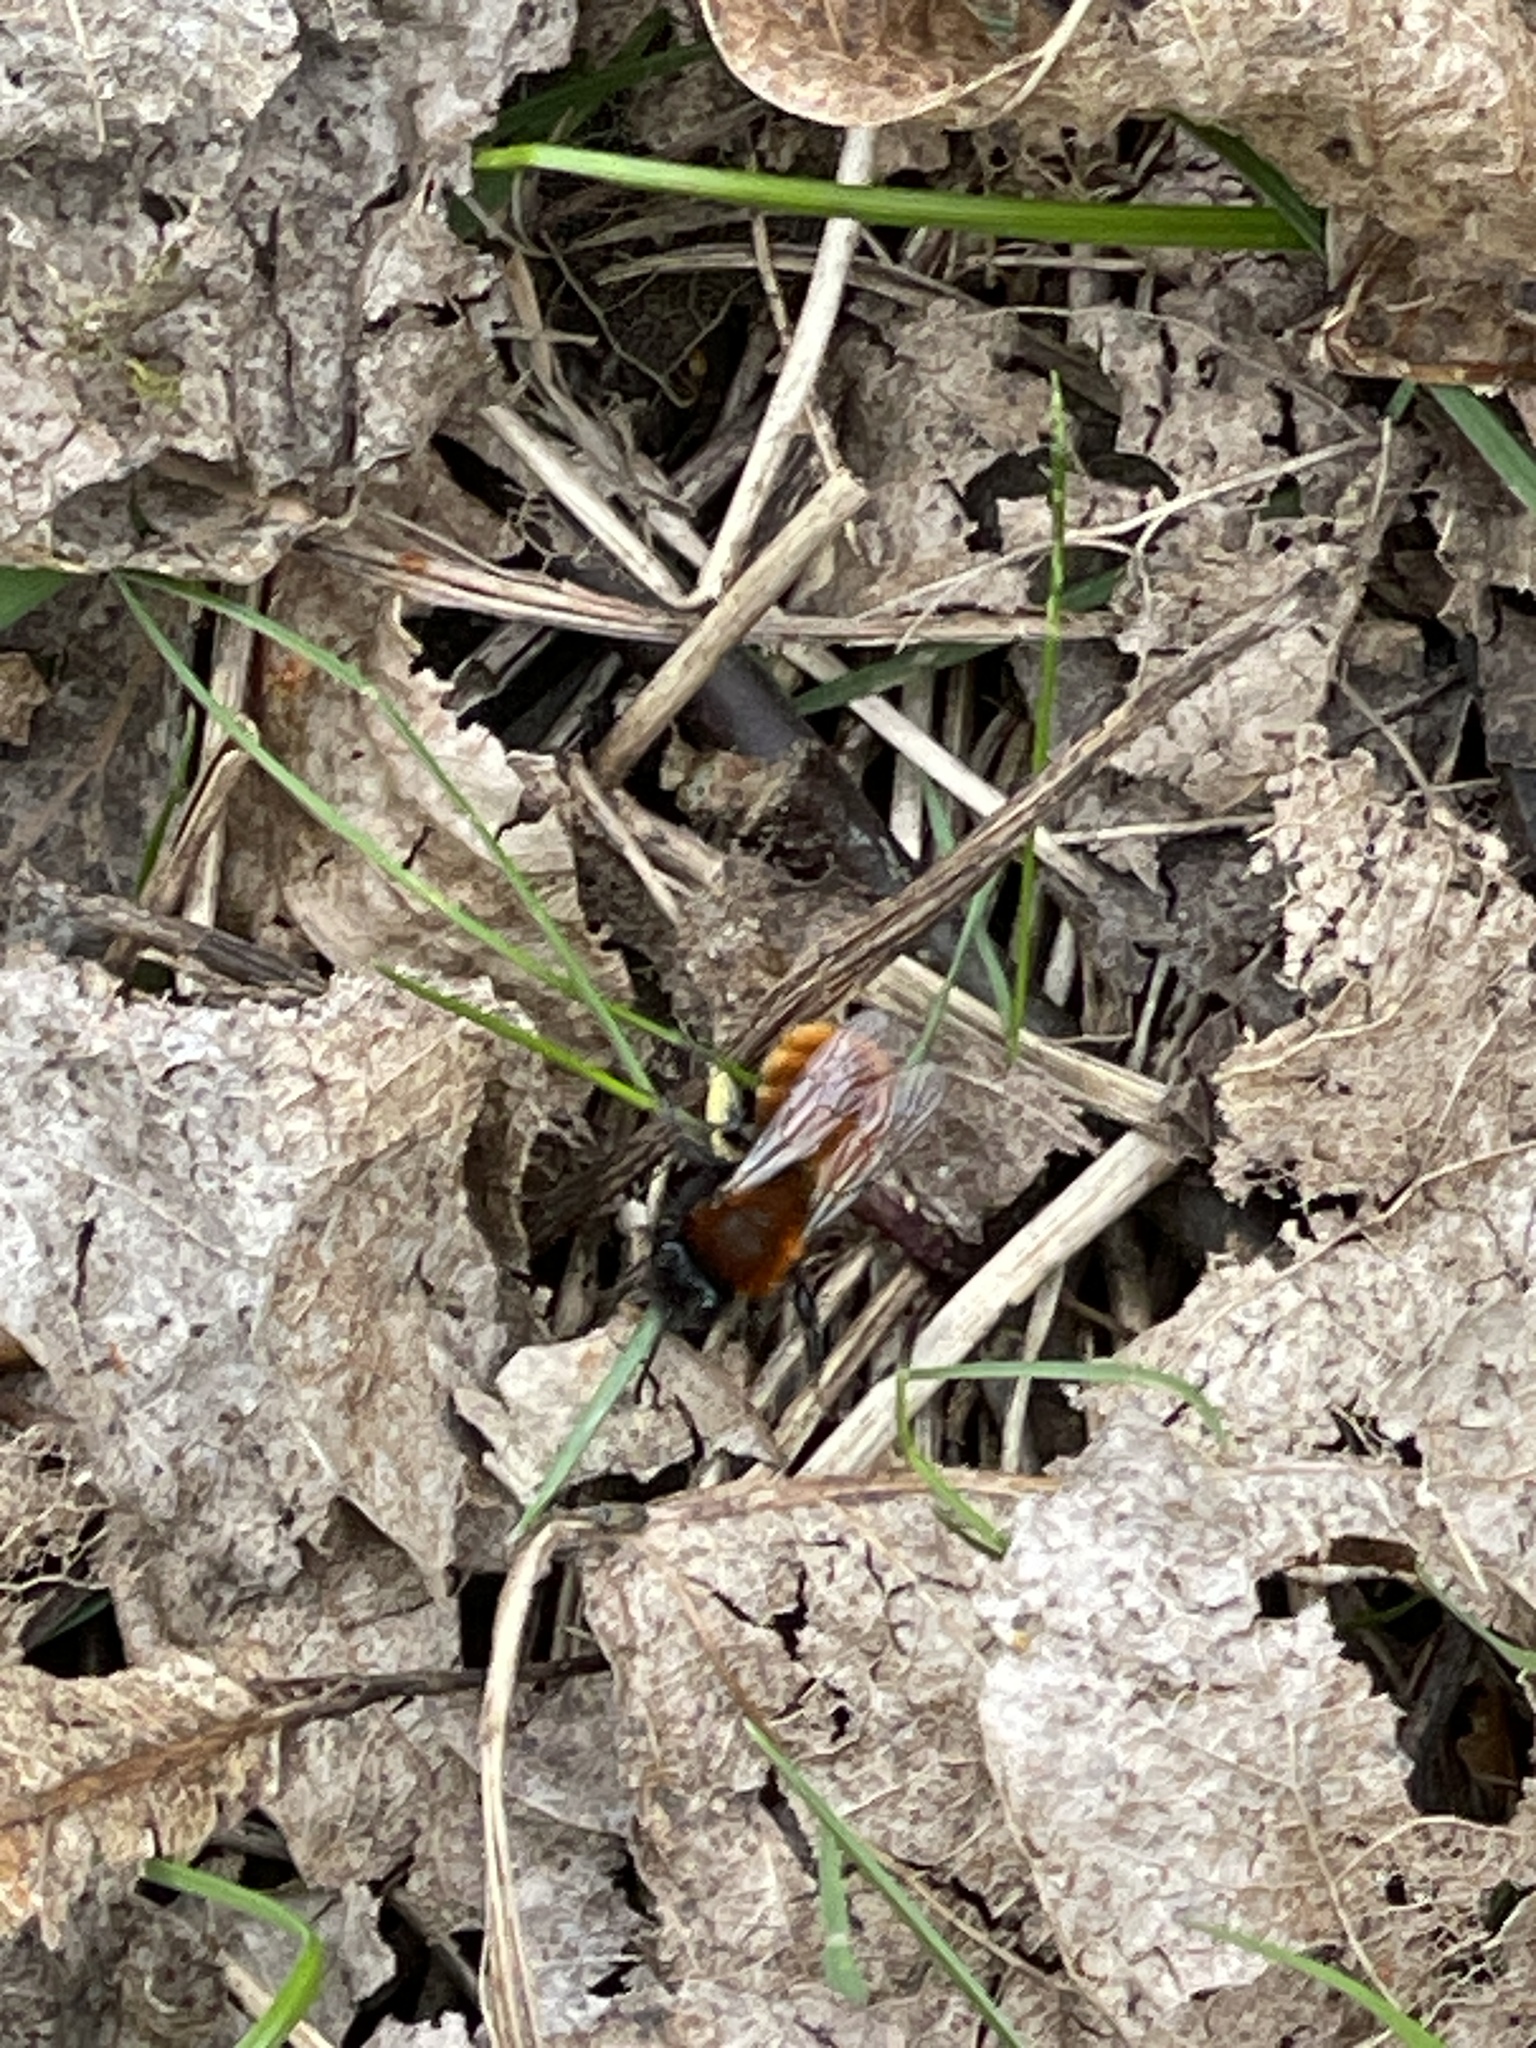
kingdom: Animalia
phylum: Arthropoda
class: Insecta
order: Hymenoptera
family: Andrenidae
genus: Andrena
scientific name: Andrena fulva
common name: Tawny mining bee
